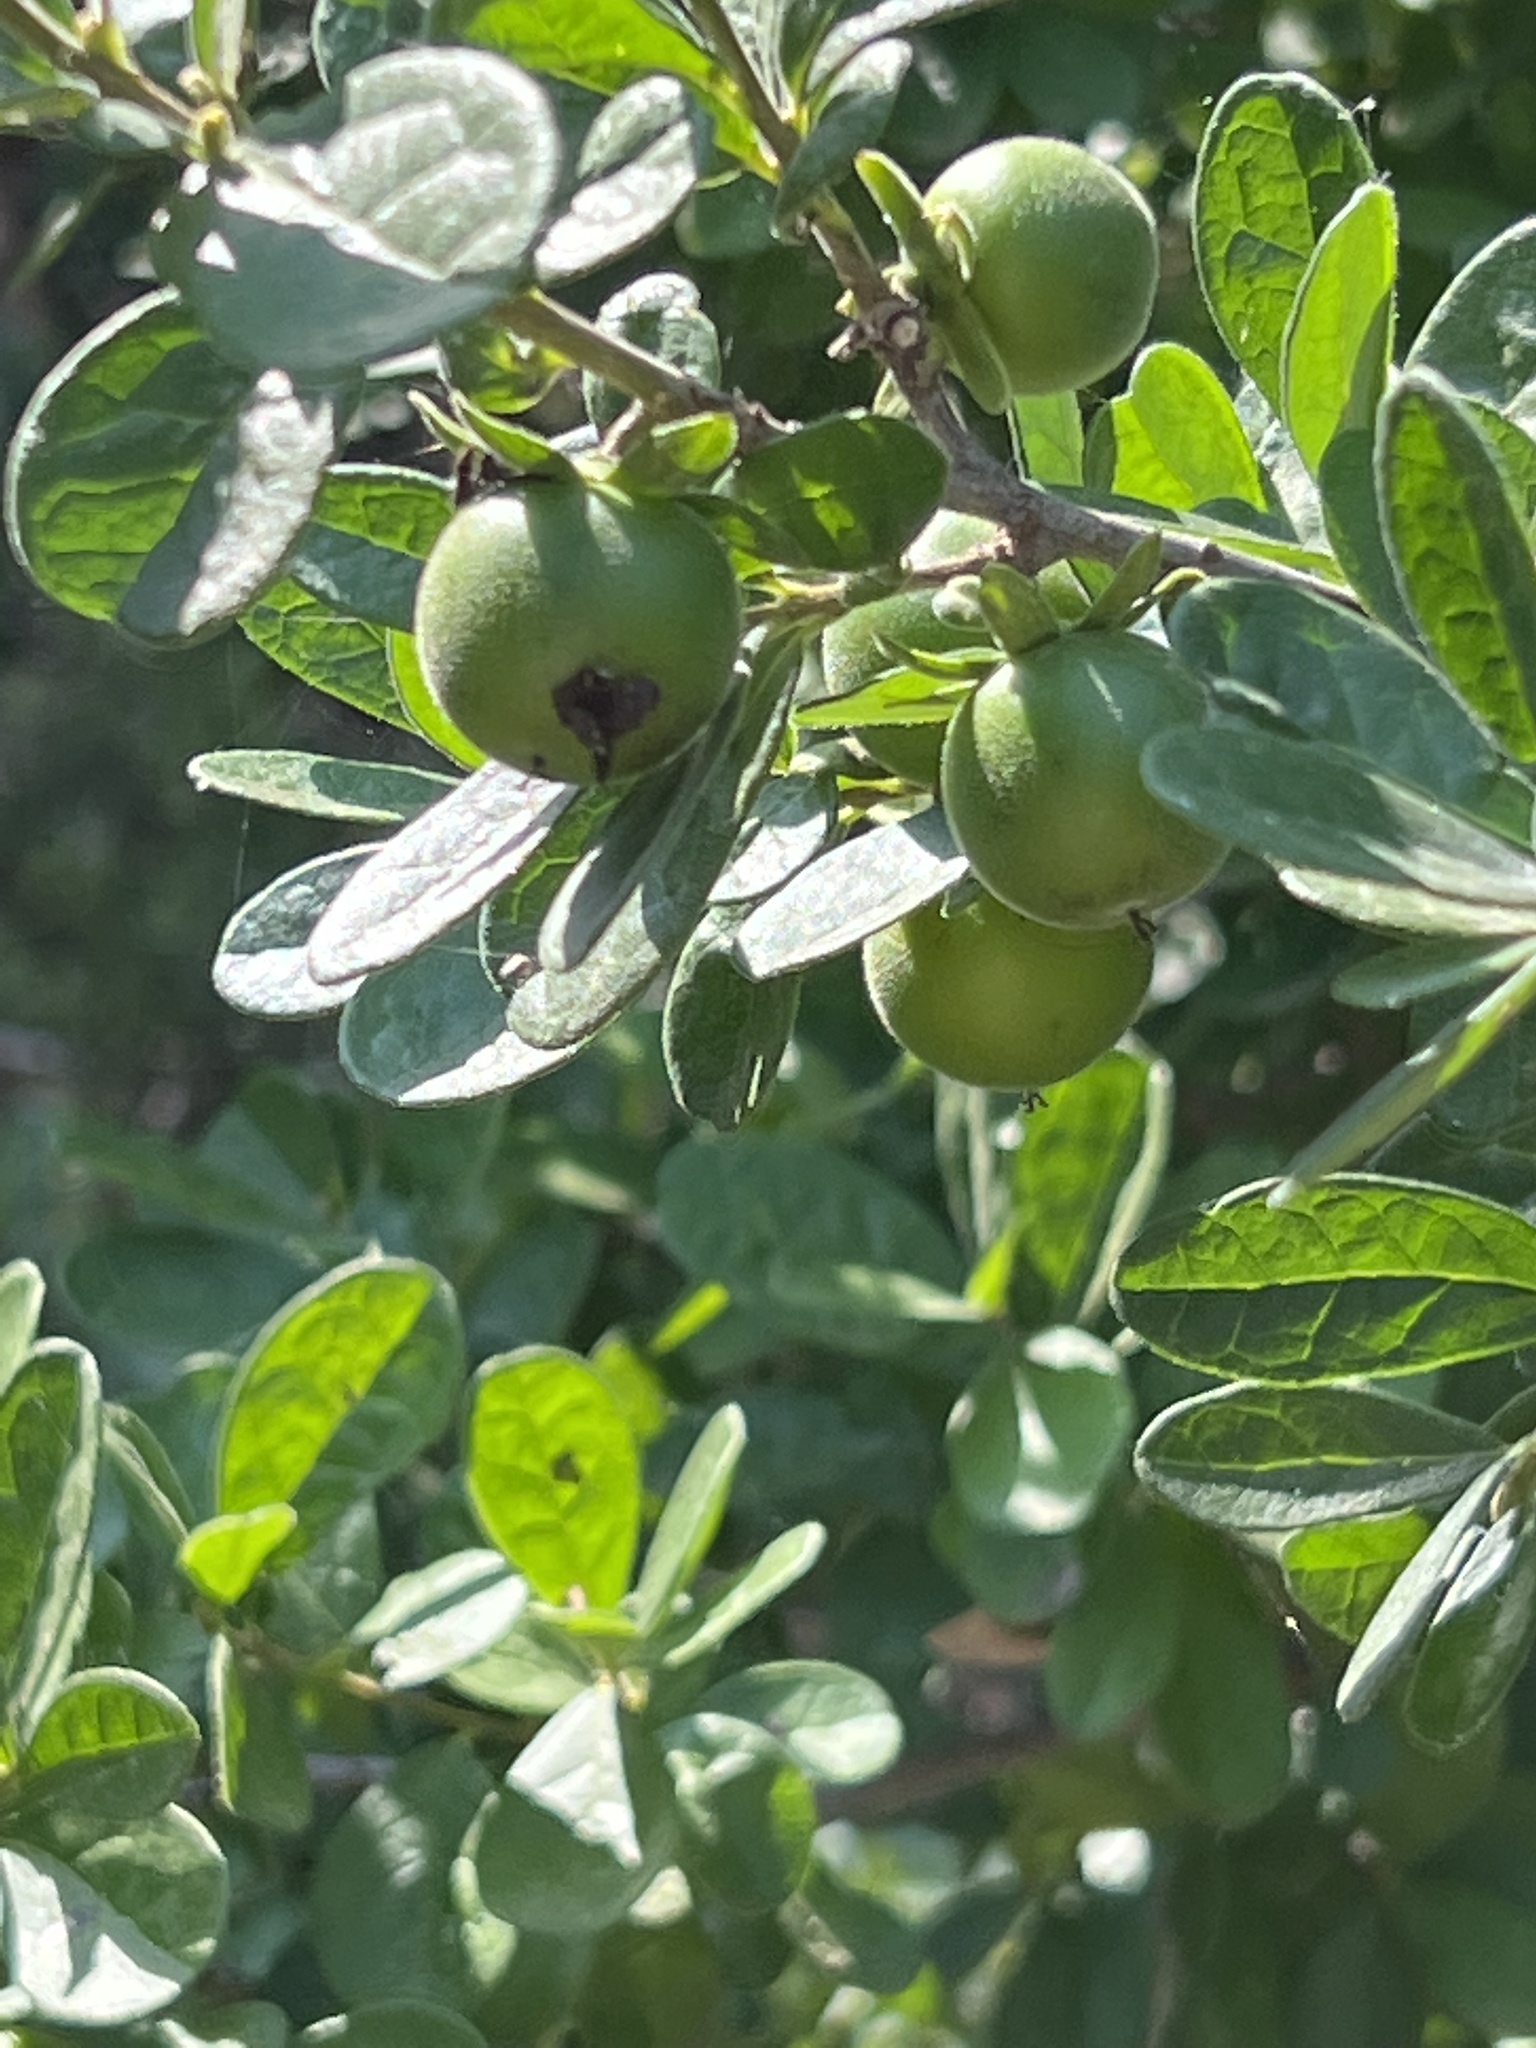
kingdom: Plantae
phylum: Tracheophyta
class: Magnoliopsida
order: Ericales
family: Ebenaceae
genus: Diospyros
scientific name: Diospyros texana
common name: Texas persimmon
